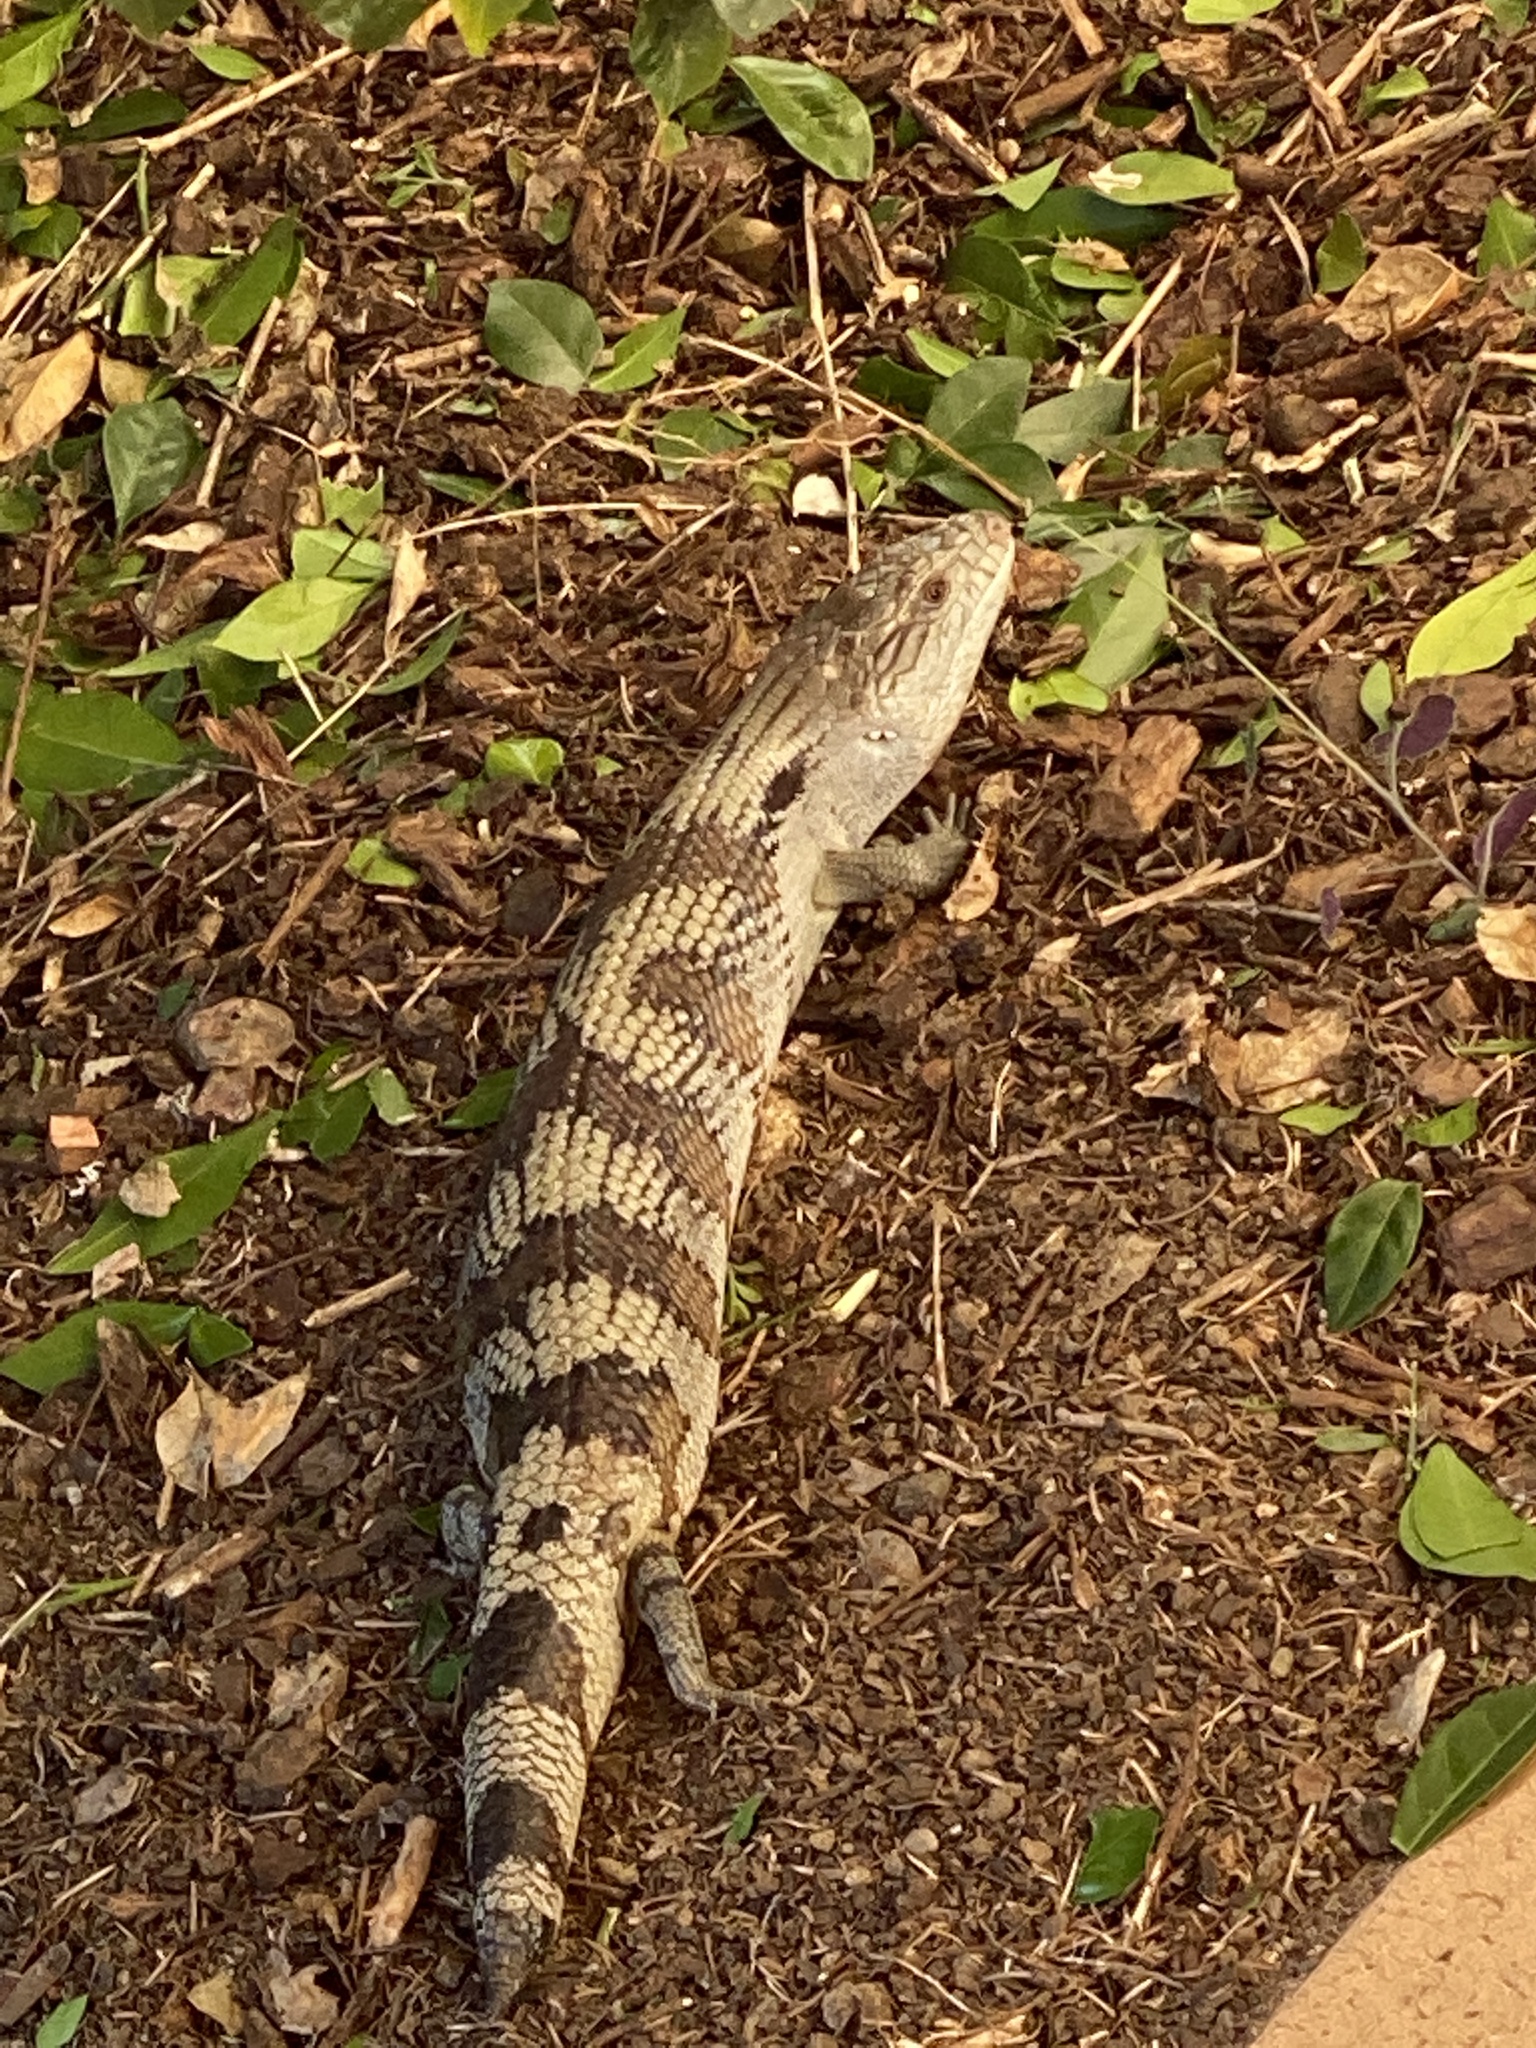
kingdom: Animalia
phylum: Chordata
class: Squamata
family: Scincidae
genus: Tiliqua
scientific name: Tiliqua scincoides
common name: Common bluetongue
